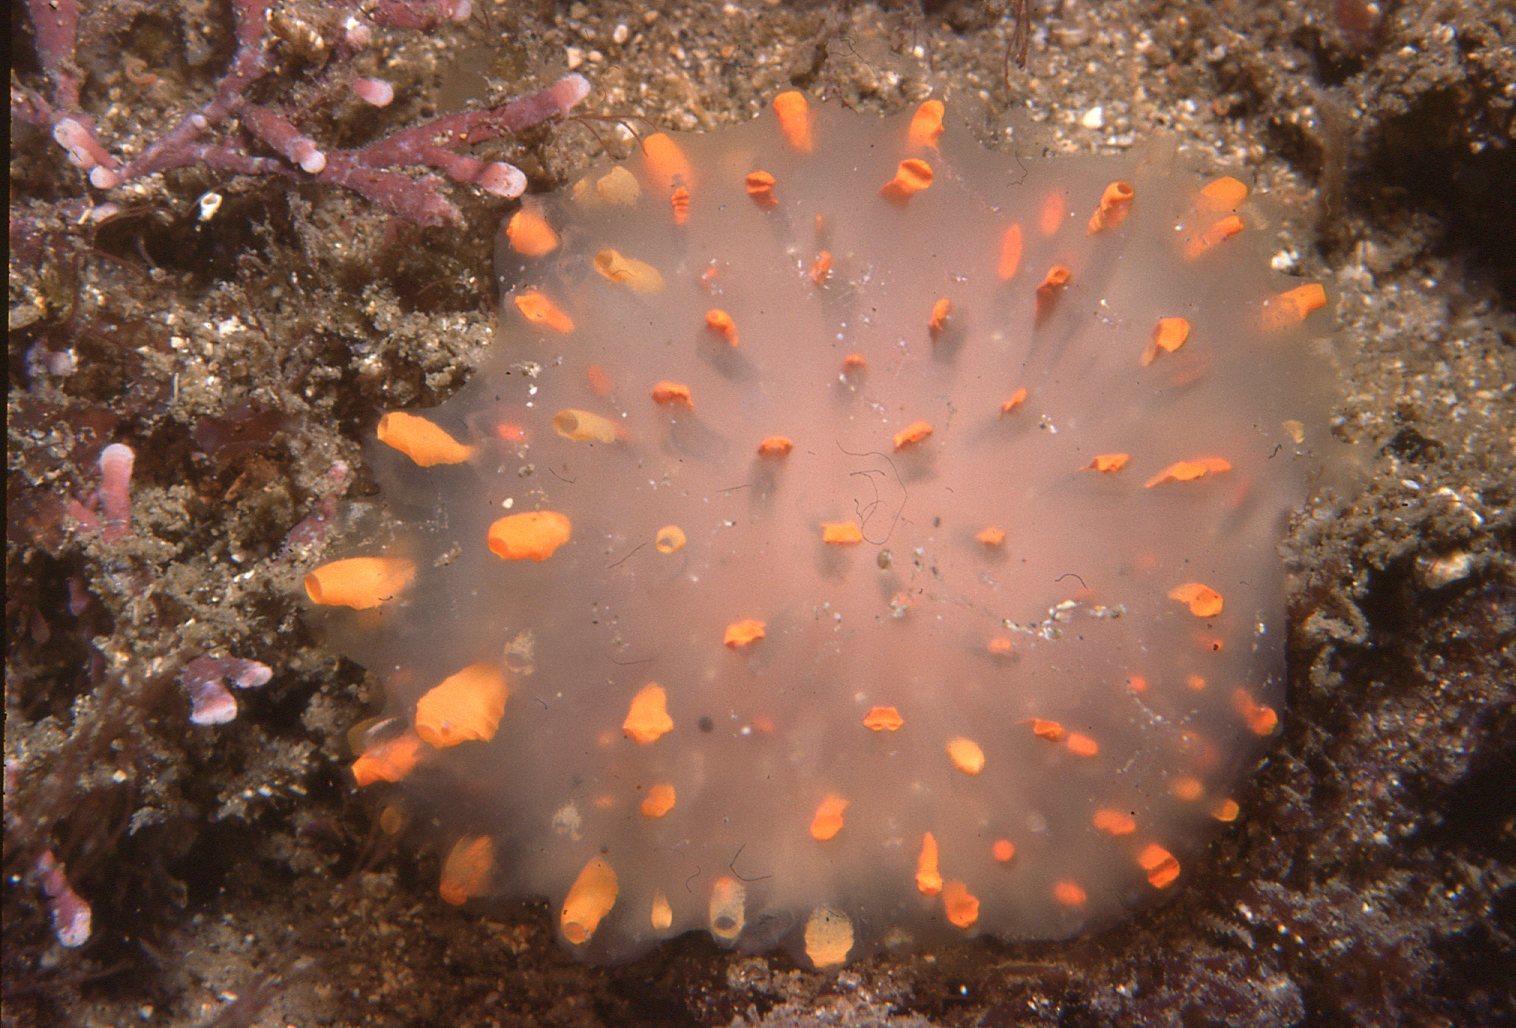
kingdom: Animalia
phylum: Chordata
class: Ascidiacea
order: Aplousobranchia
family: Polycitoridae
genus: Polycitor
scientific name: Polycitor giganteus
